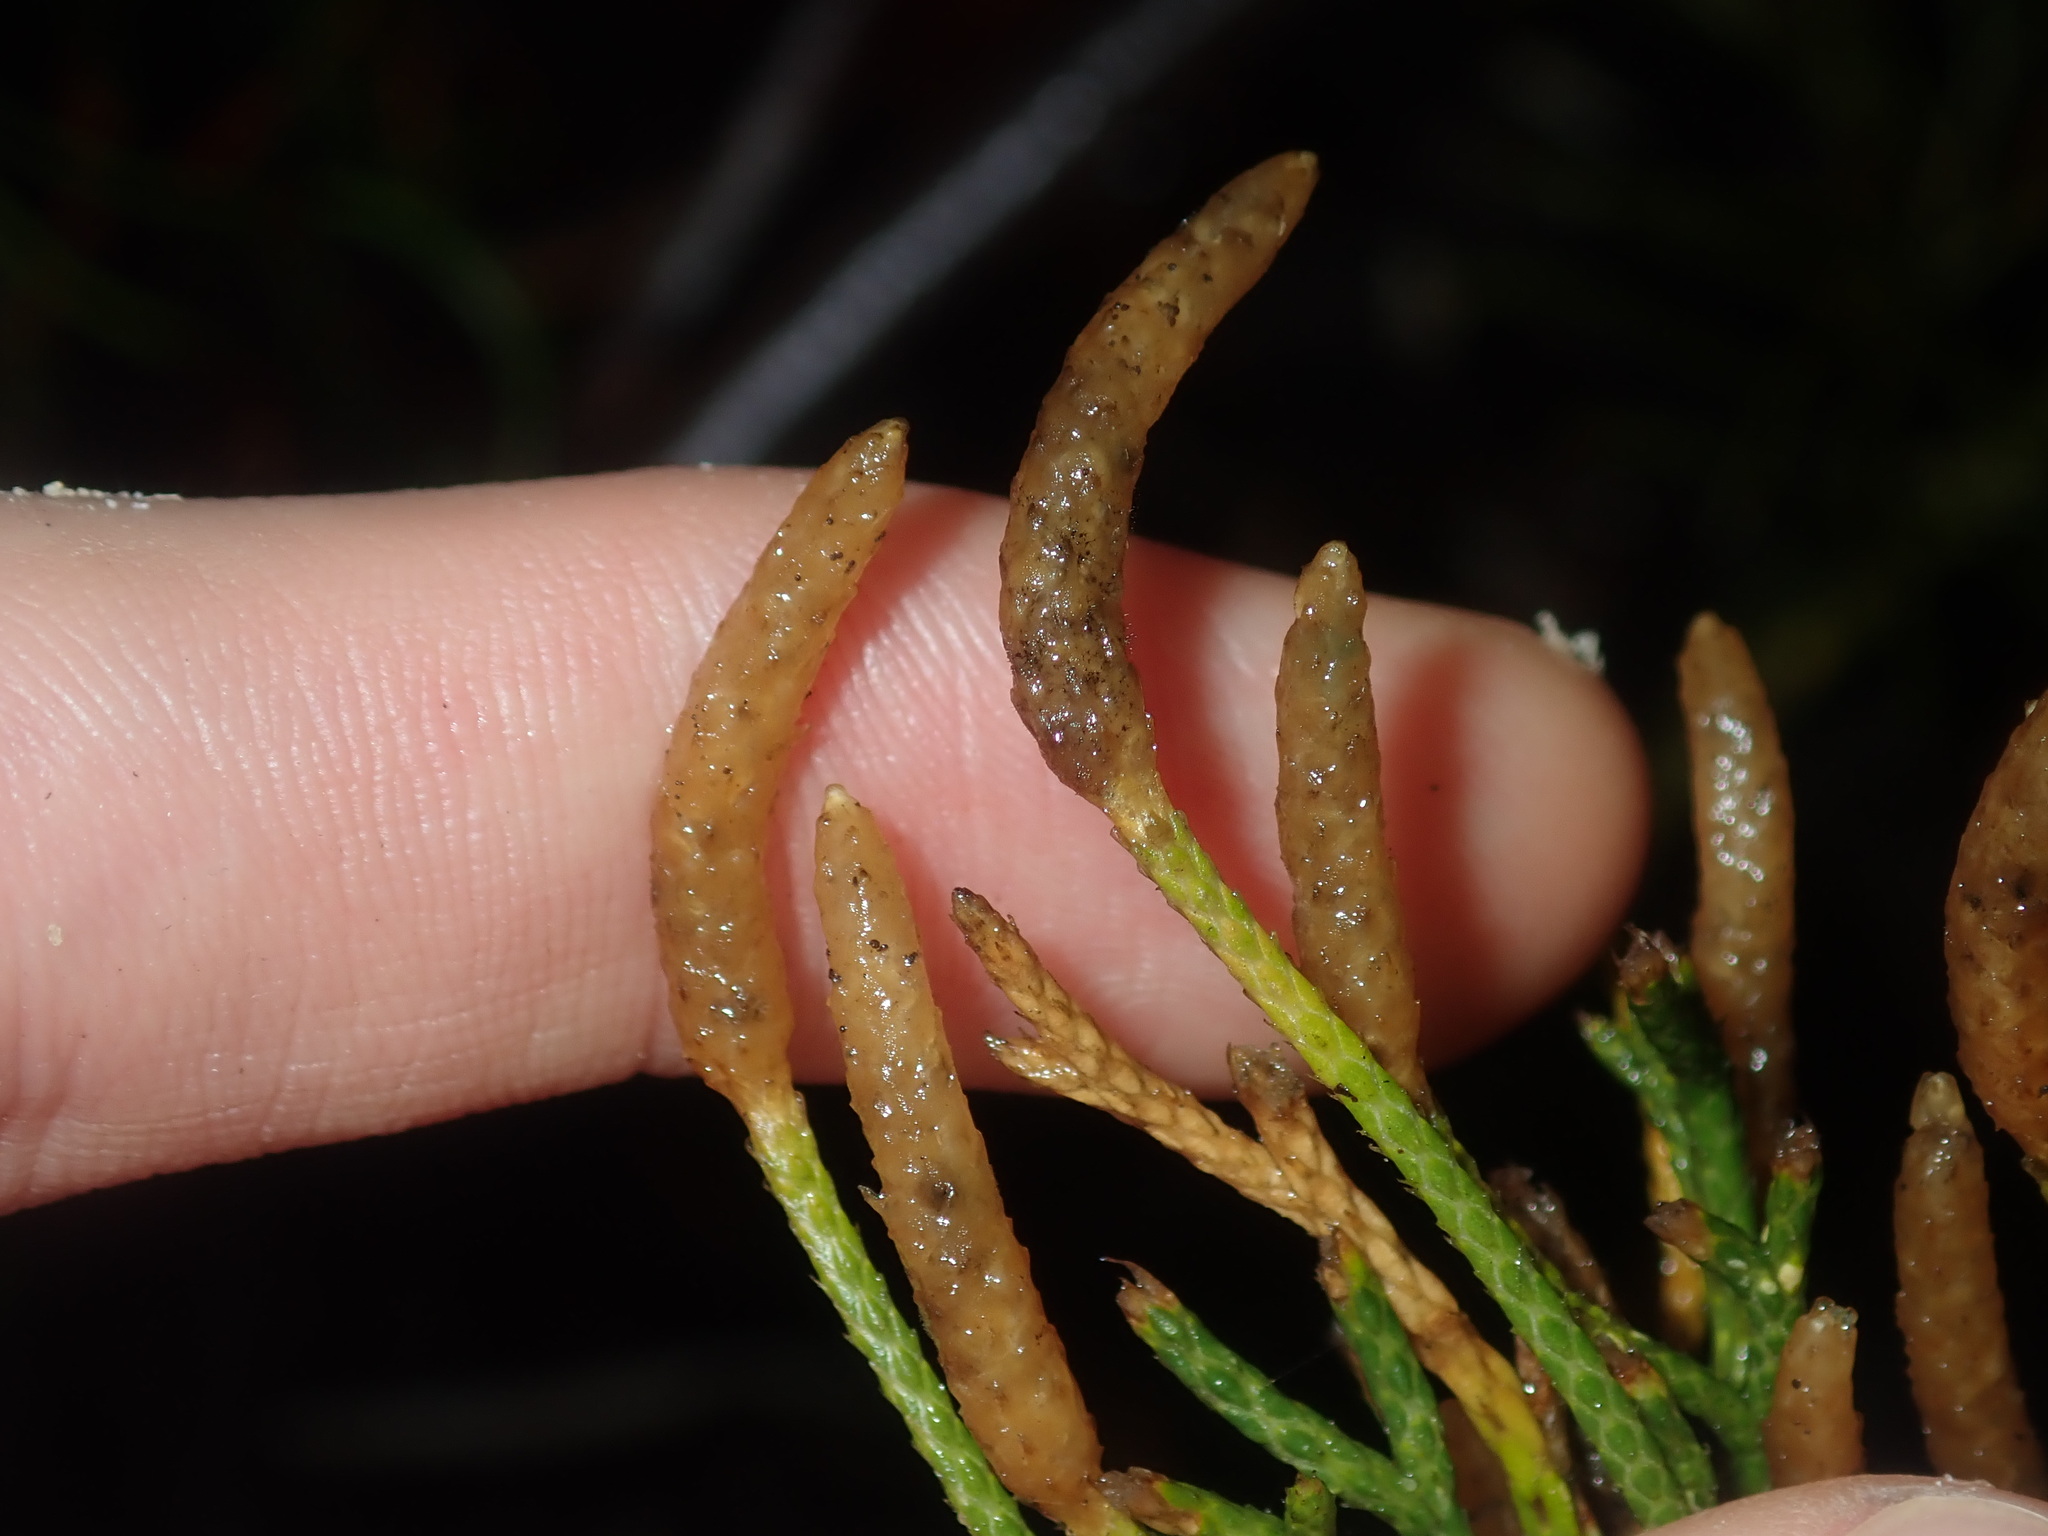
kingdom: Plantae
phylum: Tracheophyta
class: Lycopodiopsida
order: Lycopodiales
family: Lycopodiaceae
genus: Pseudolycopodium
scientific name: Pseudolycopodium densum
